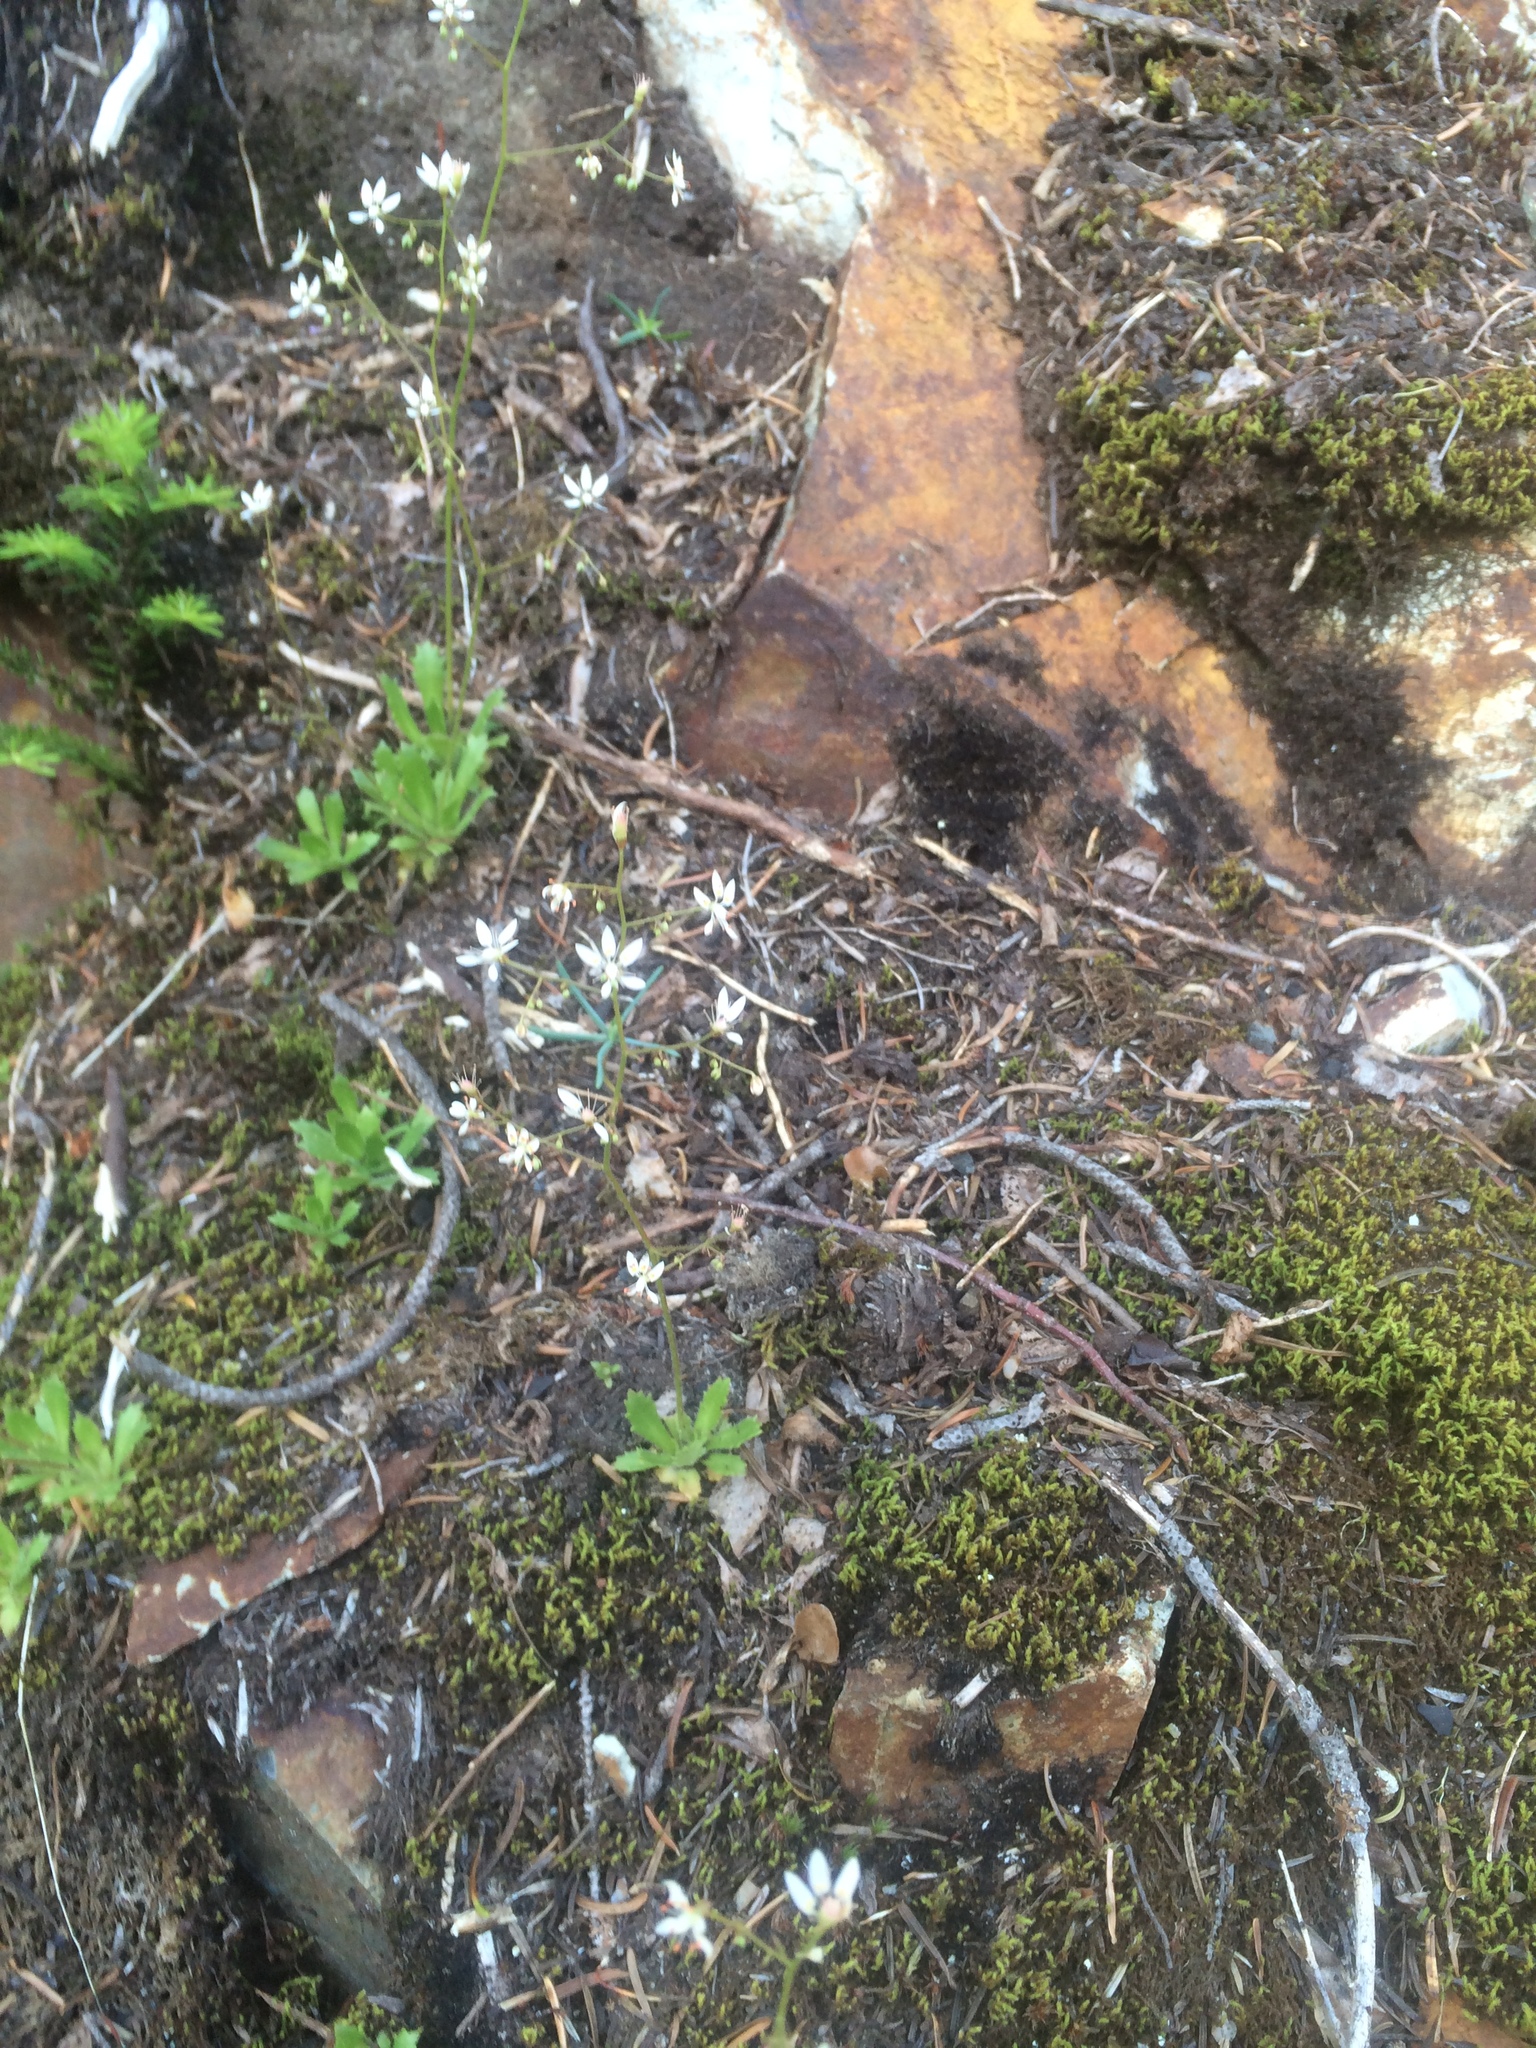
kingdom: Plantae
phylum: Tracheophyta
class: Magnoliopsida
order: Saxifragales
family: Saxifragaceae
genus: Micranthes
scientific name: Micranthes ferruginea
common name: Rusty saxifrage
